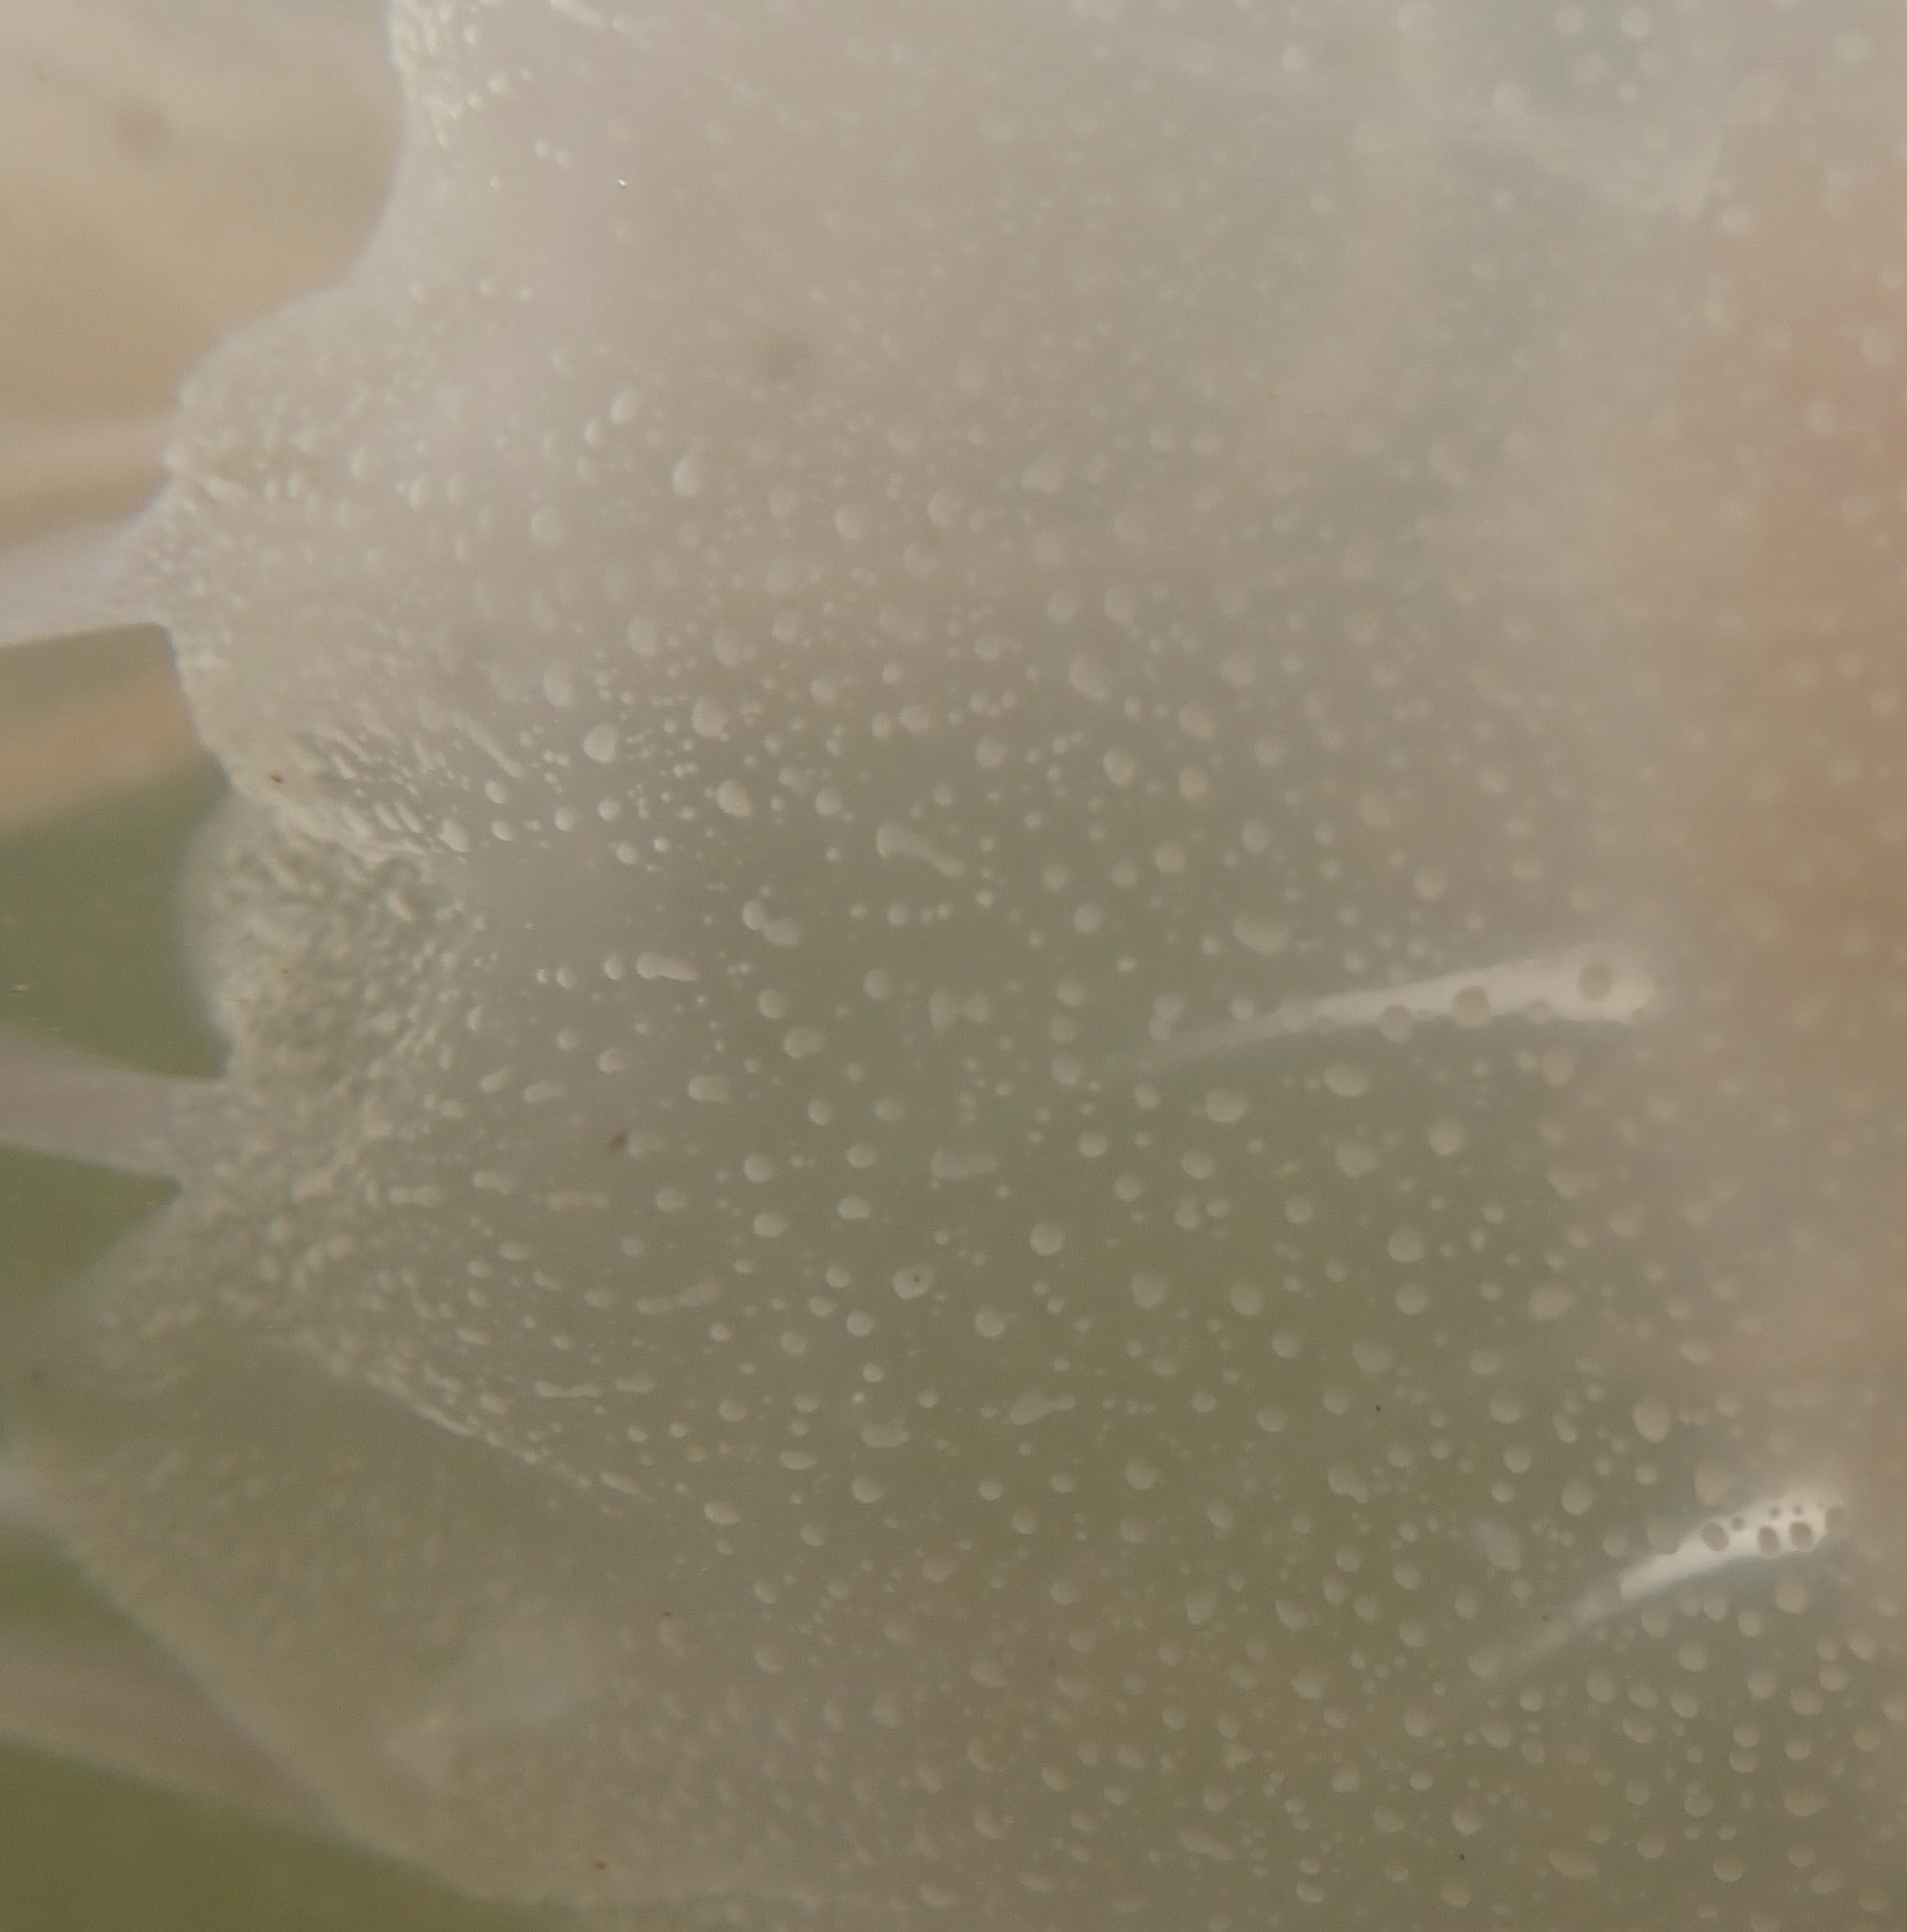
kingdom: Animalia
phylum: Cnidaria
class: Scyphozoa
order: Semaeostomeae
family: Pelagiidae
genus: Chrysaora
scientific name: Chrysaora chesapeakei
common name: Bay nettle
